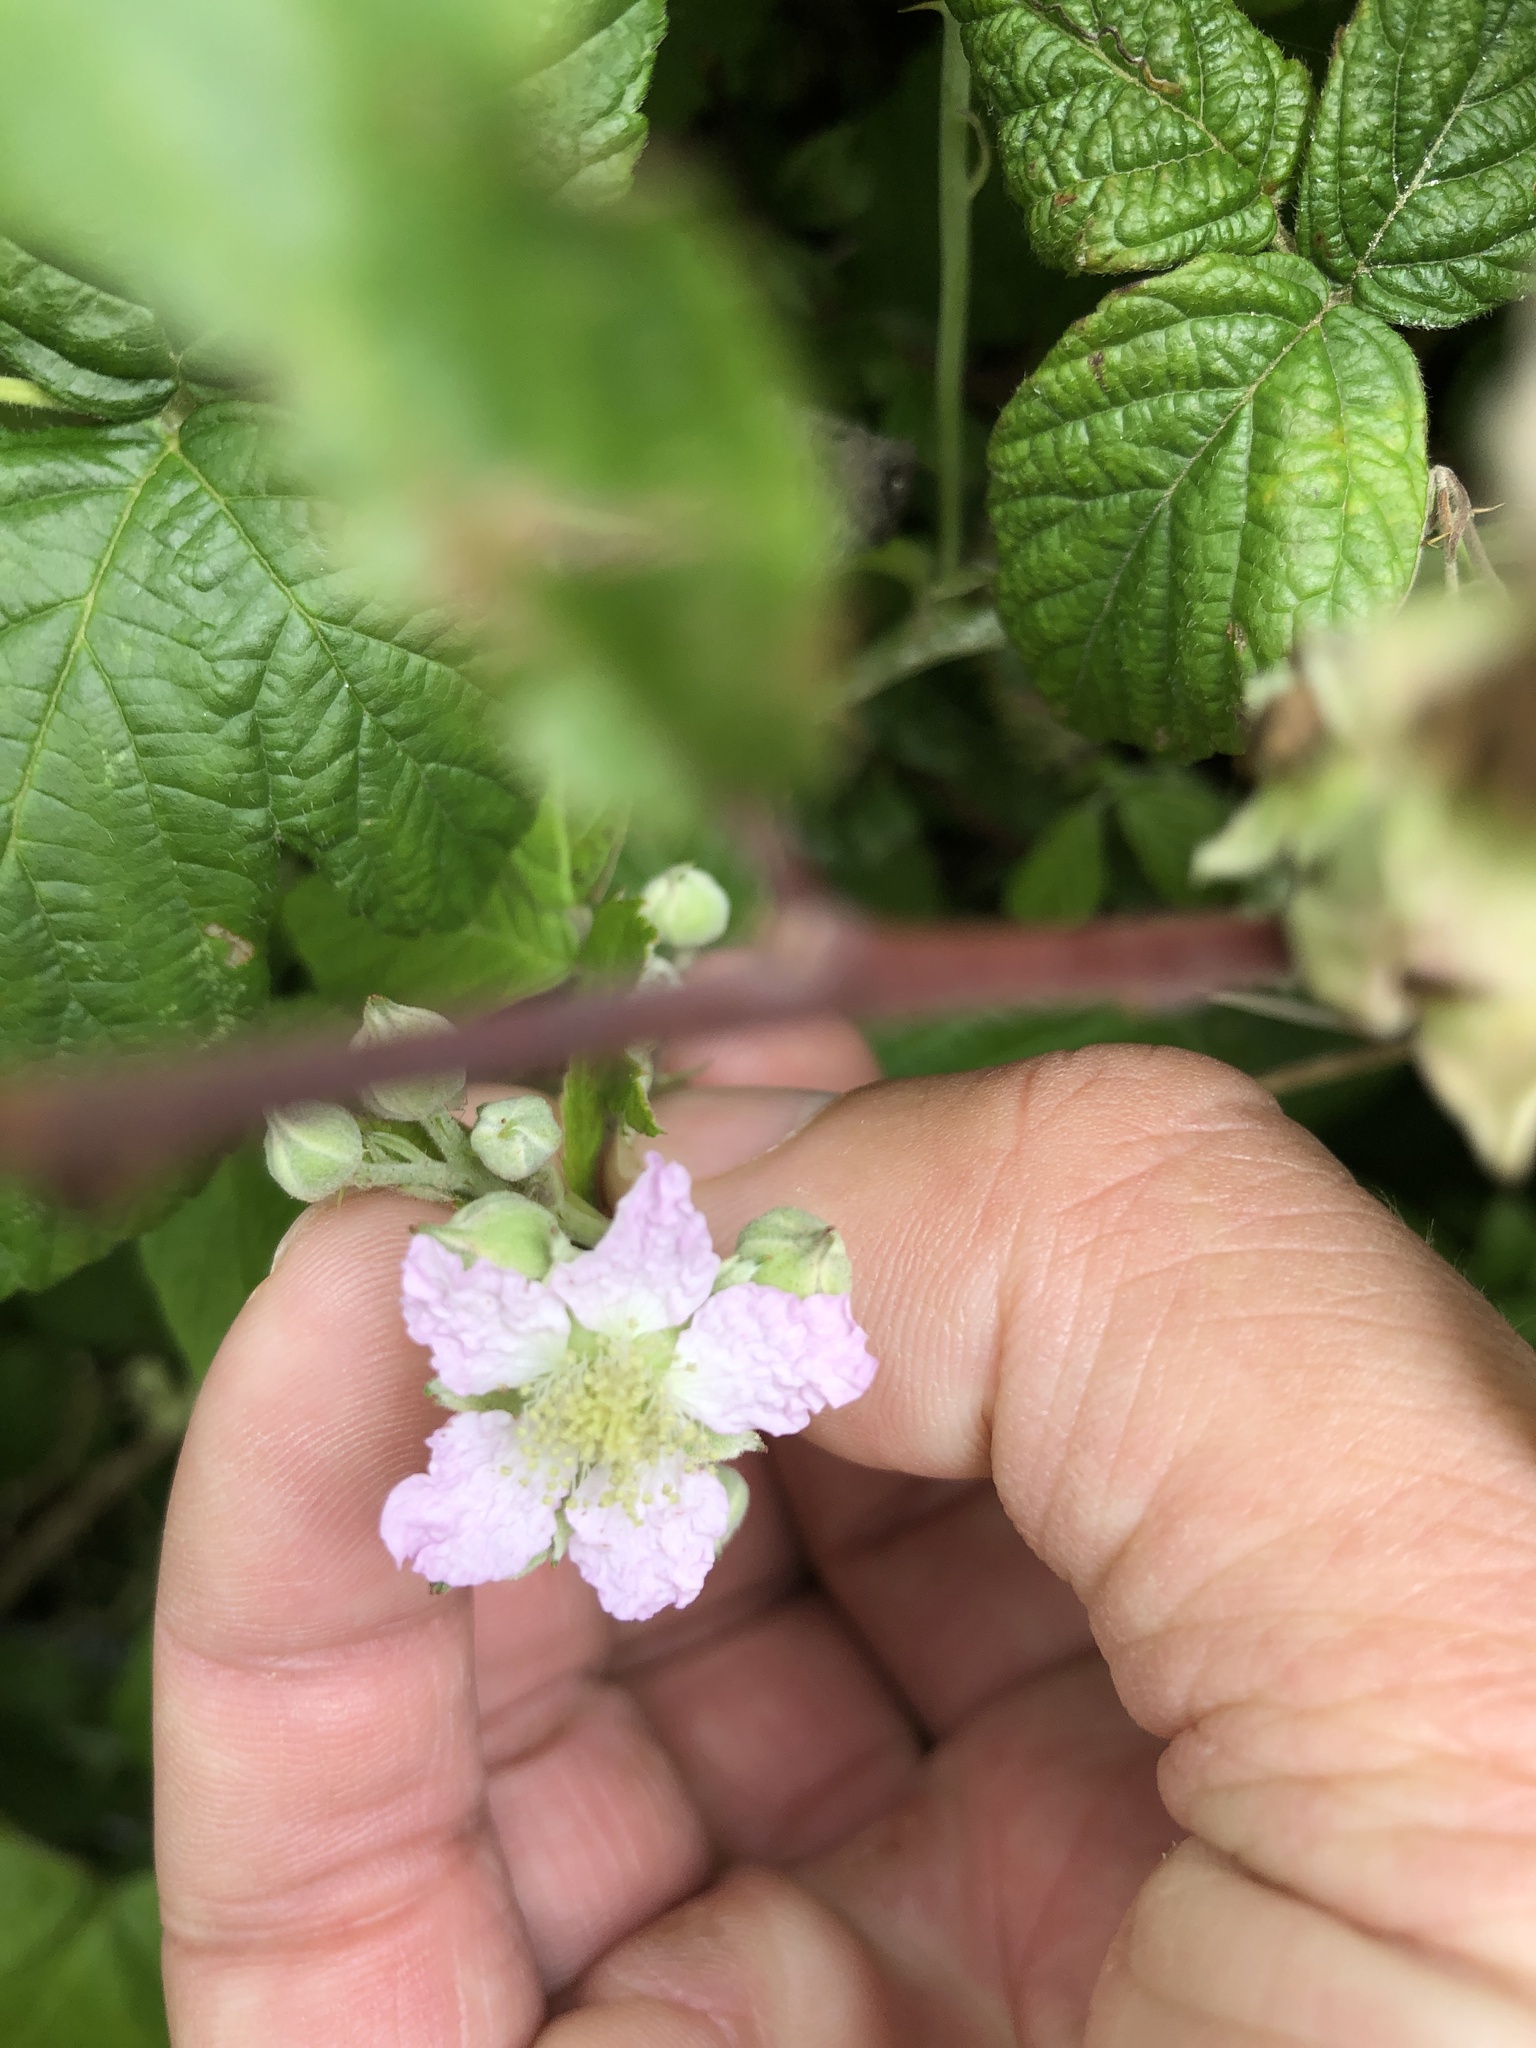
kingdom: Plantae
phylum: Tracheophyta
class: Magnoliopsida
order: Rosales
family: Rosaceae
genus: Rubus
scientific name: Rubus fruticosus
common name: Blackberry, bramble
